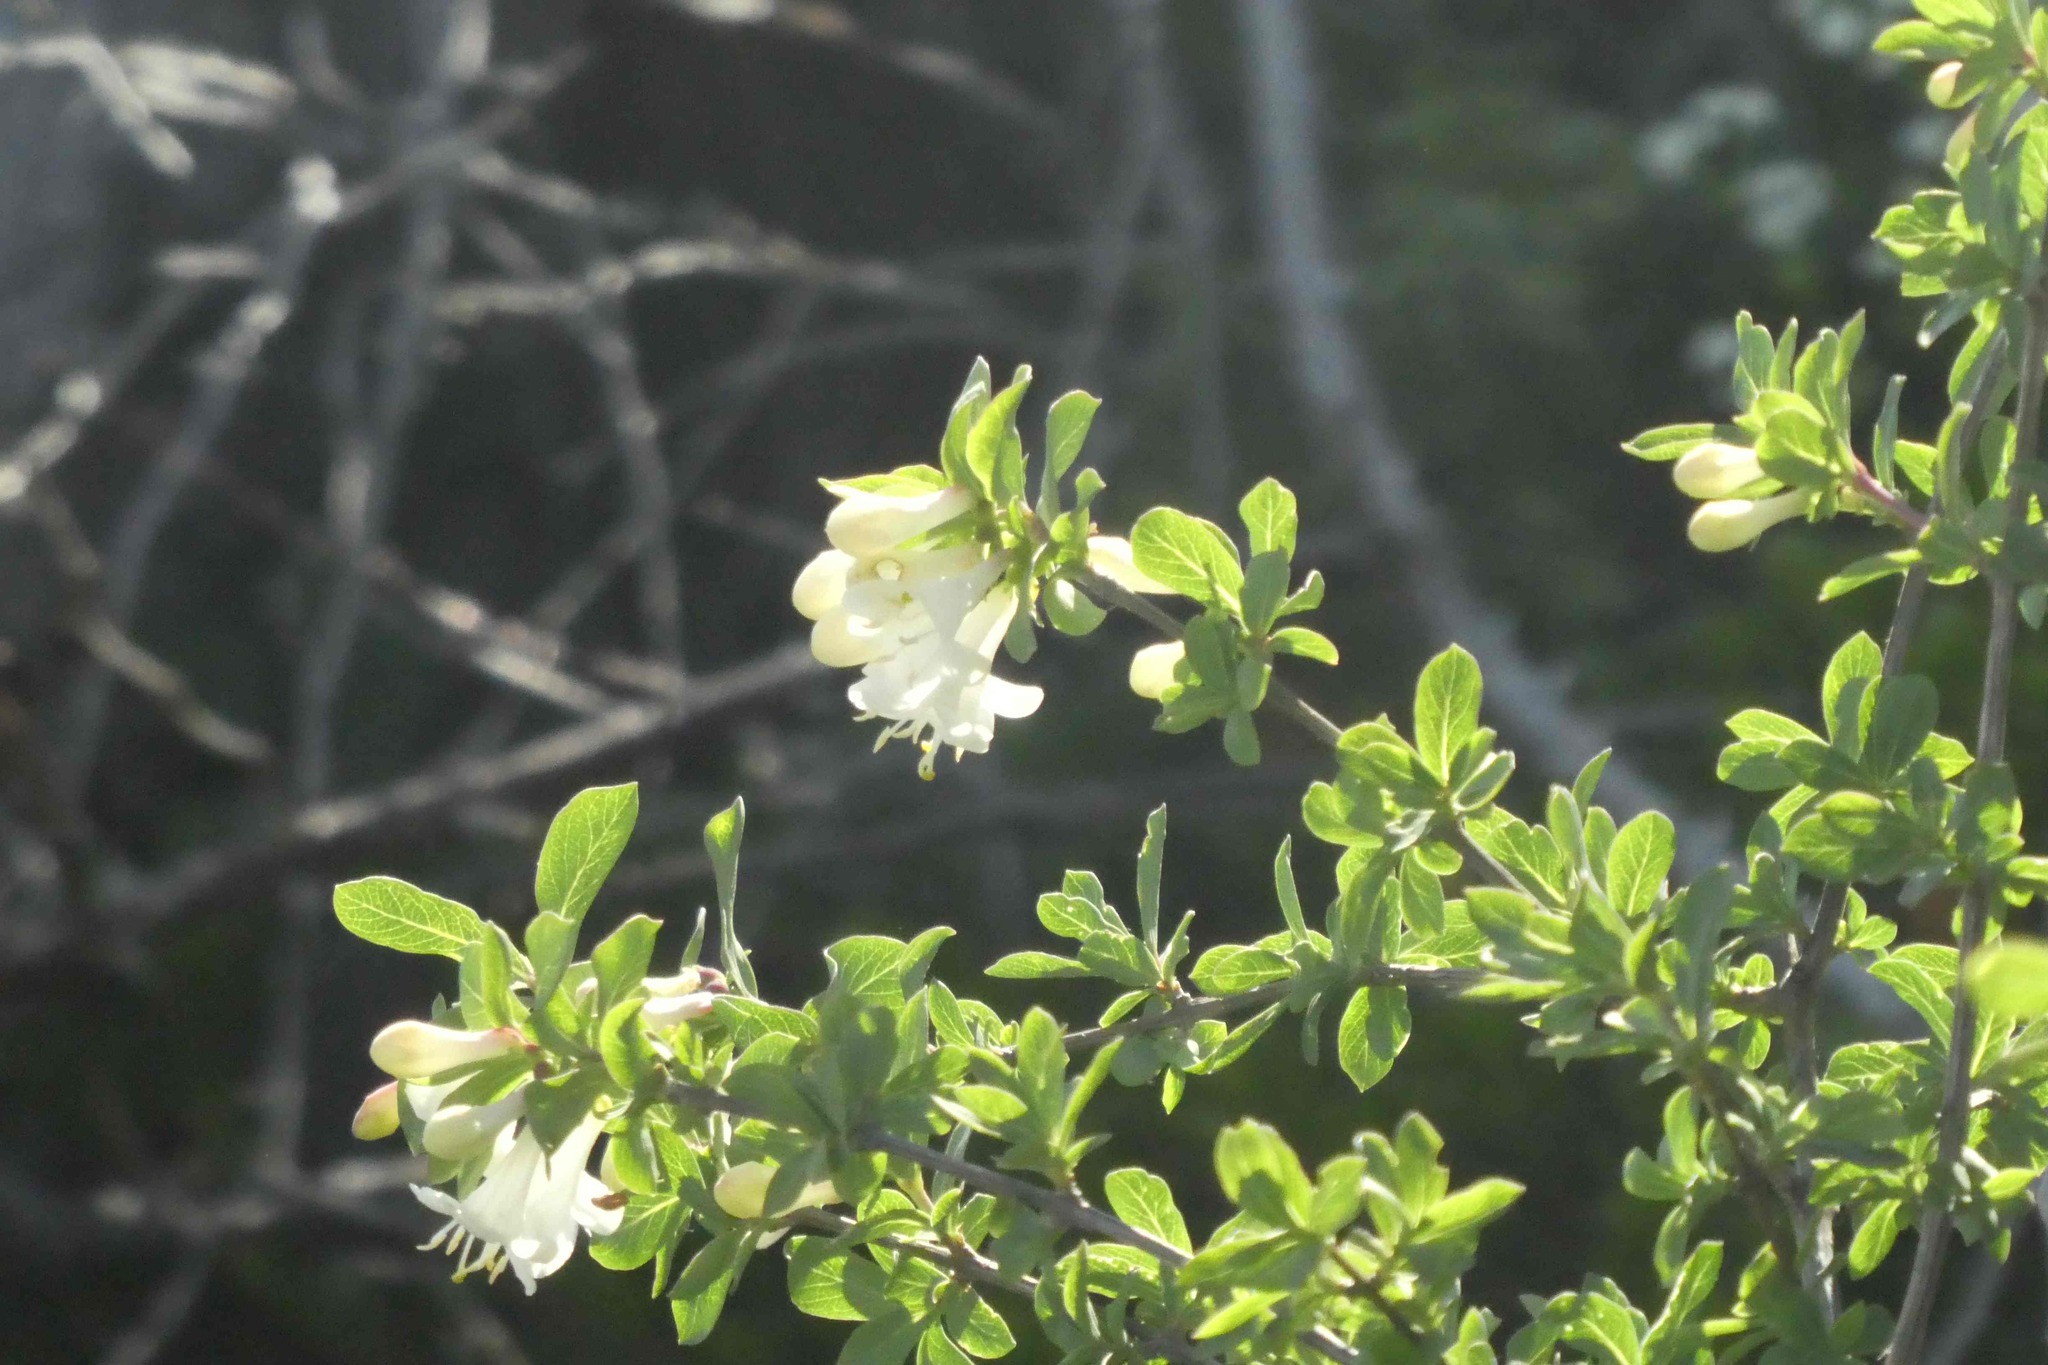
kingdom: Plantae
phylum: Tracheophyta
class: Magnoliopsida
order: Dipsacales
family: Caprifoliaceae
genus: Lonicera
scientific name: Lonicera pyrenaica
